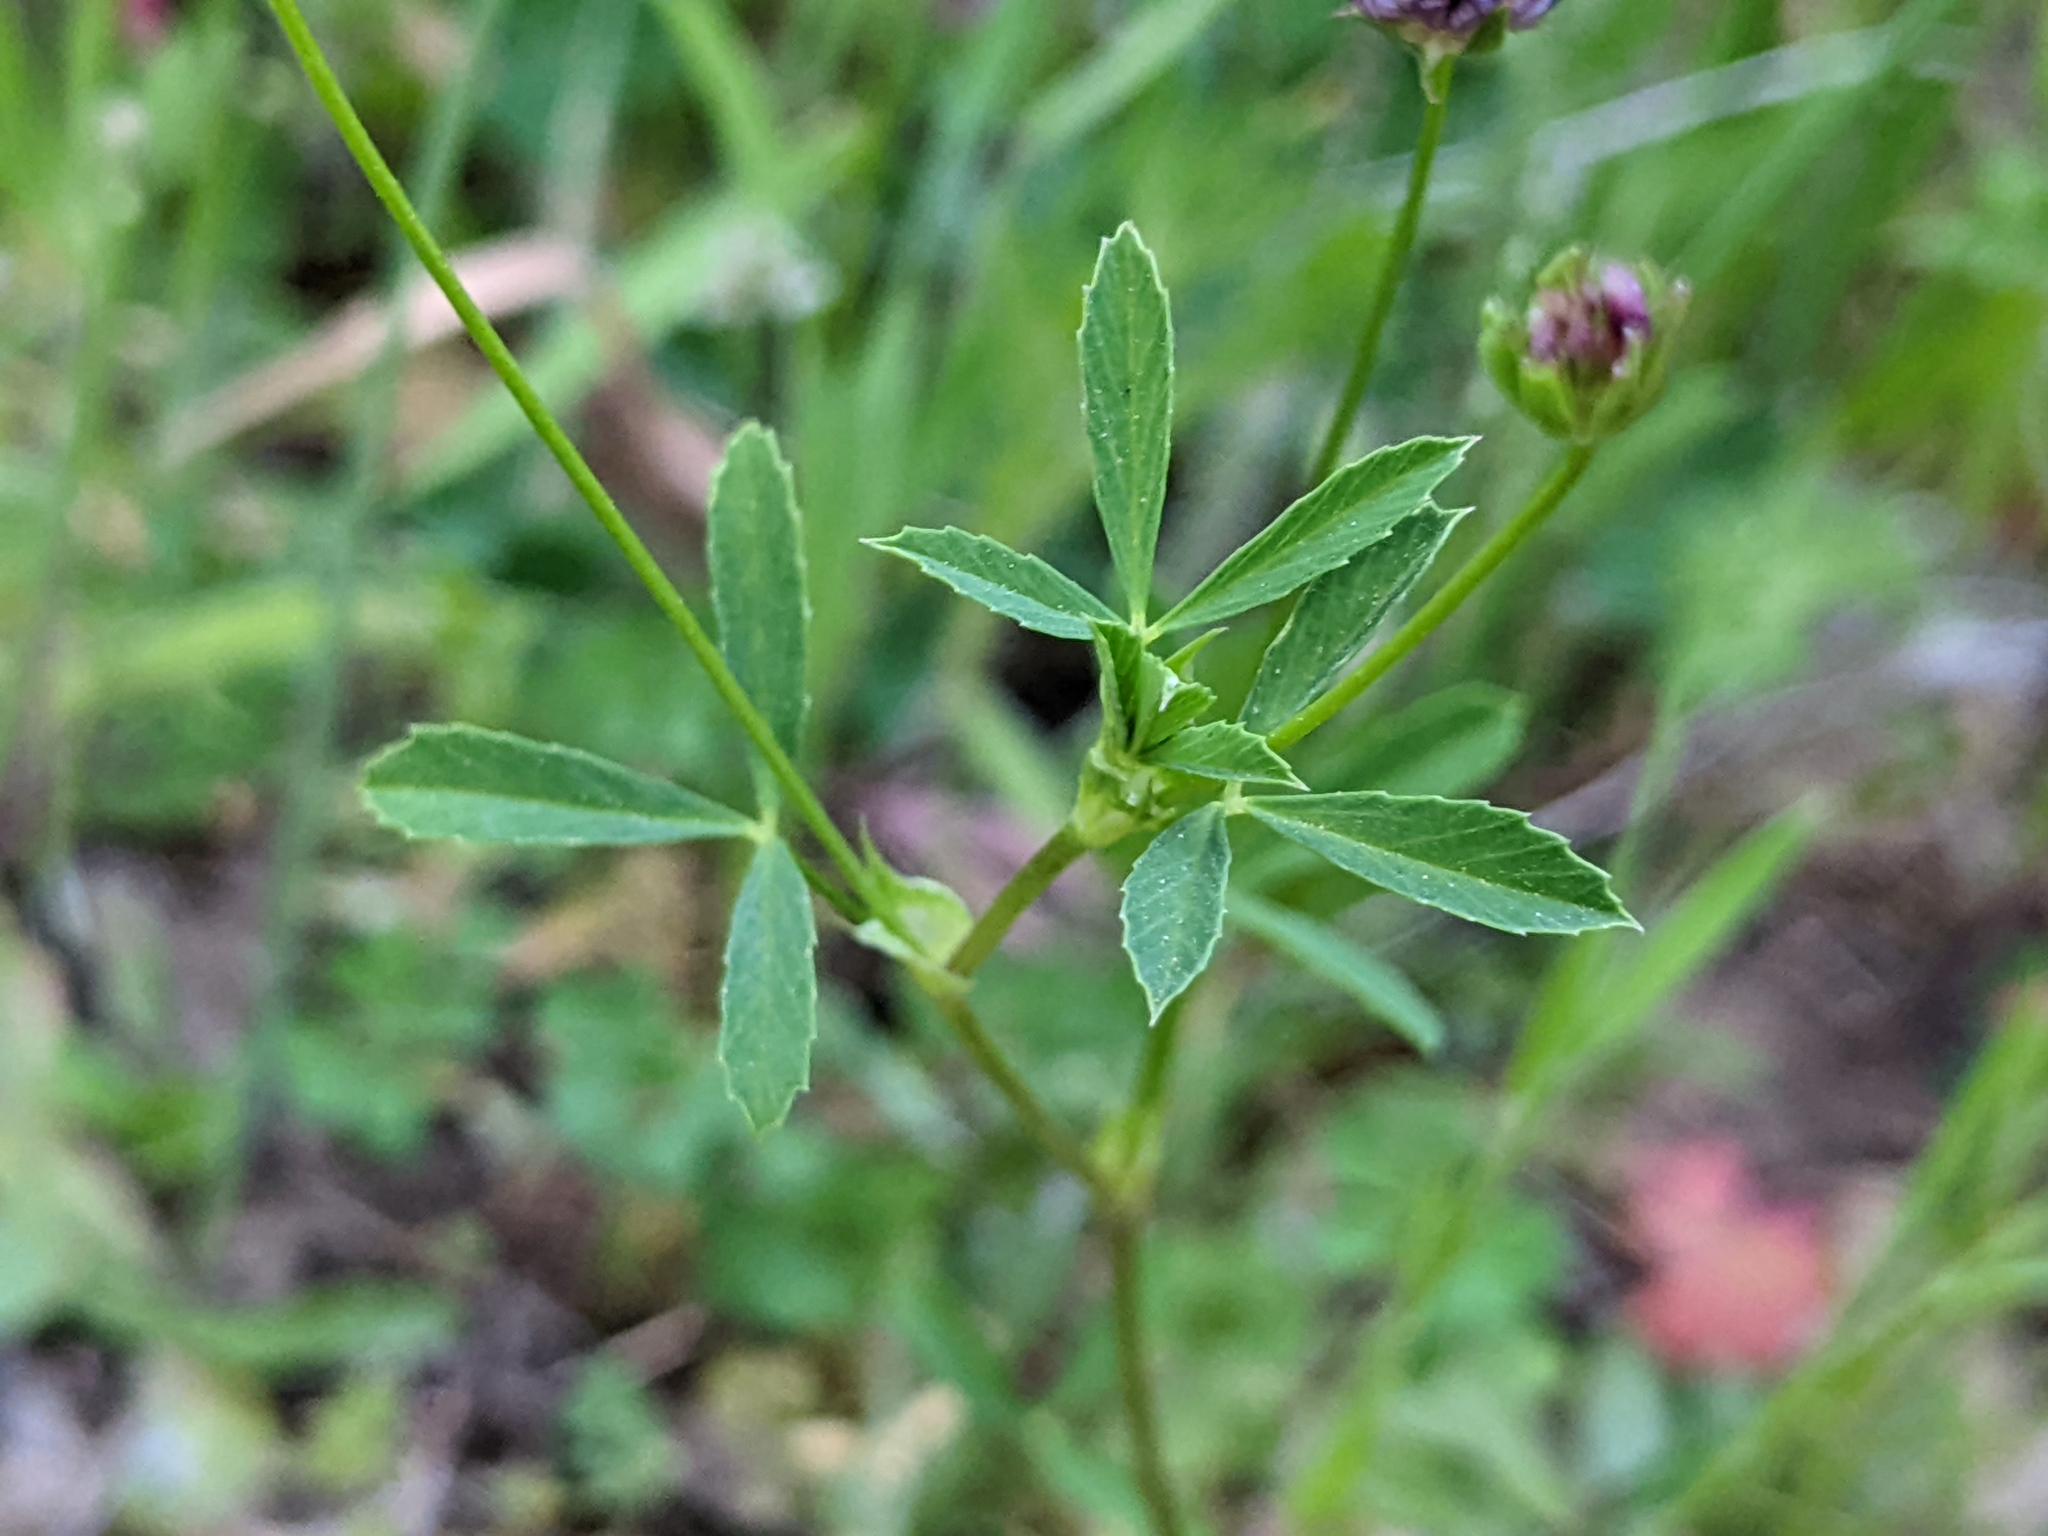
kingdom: Plantae
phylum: Tracheophyta
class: Magnoliopsida
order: Fabales
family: Fabaceae
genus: Trifolium
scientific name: Trifolium depauperatum
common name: Poverty clover
